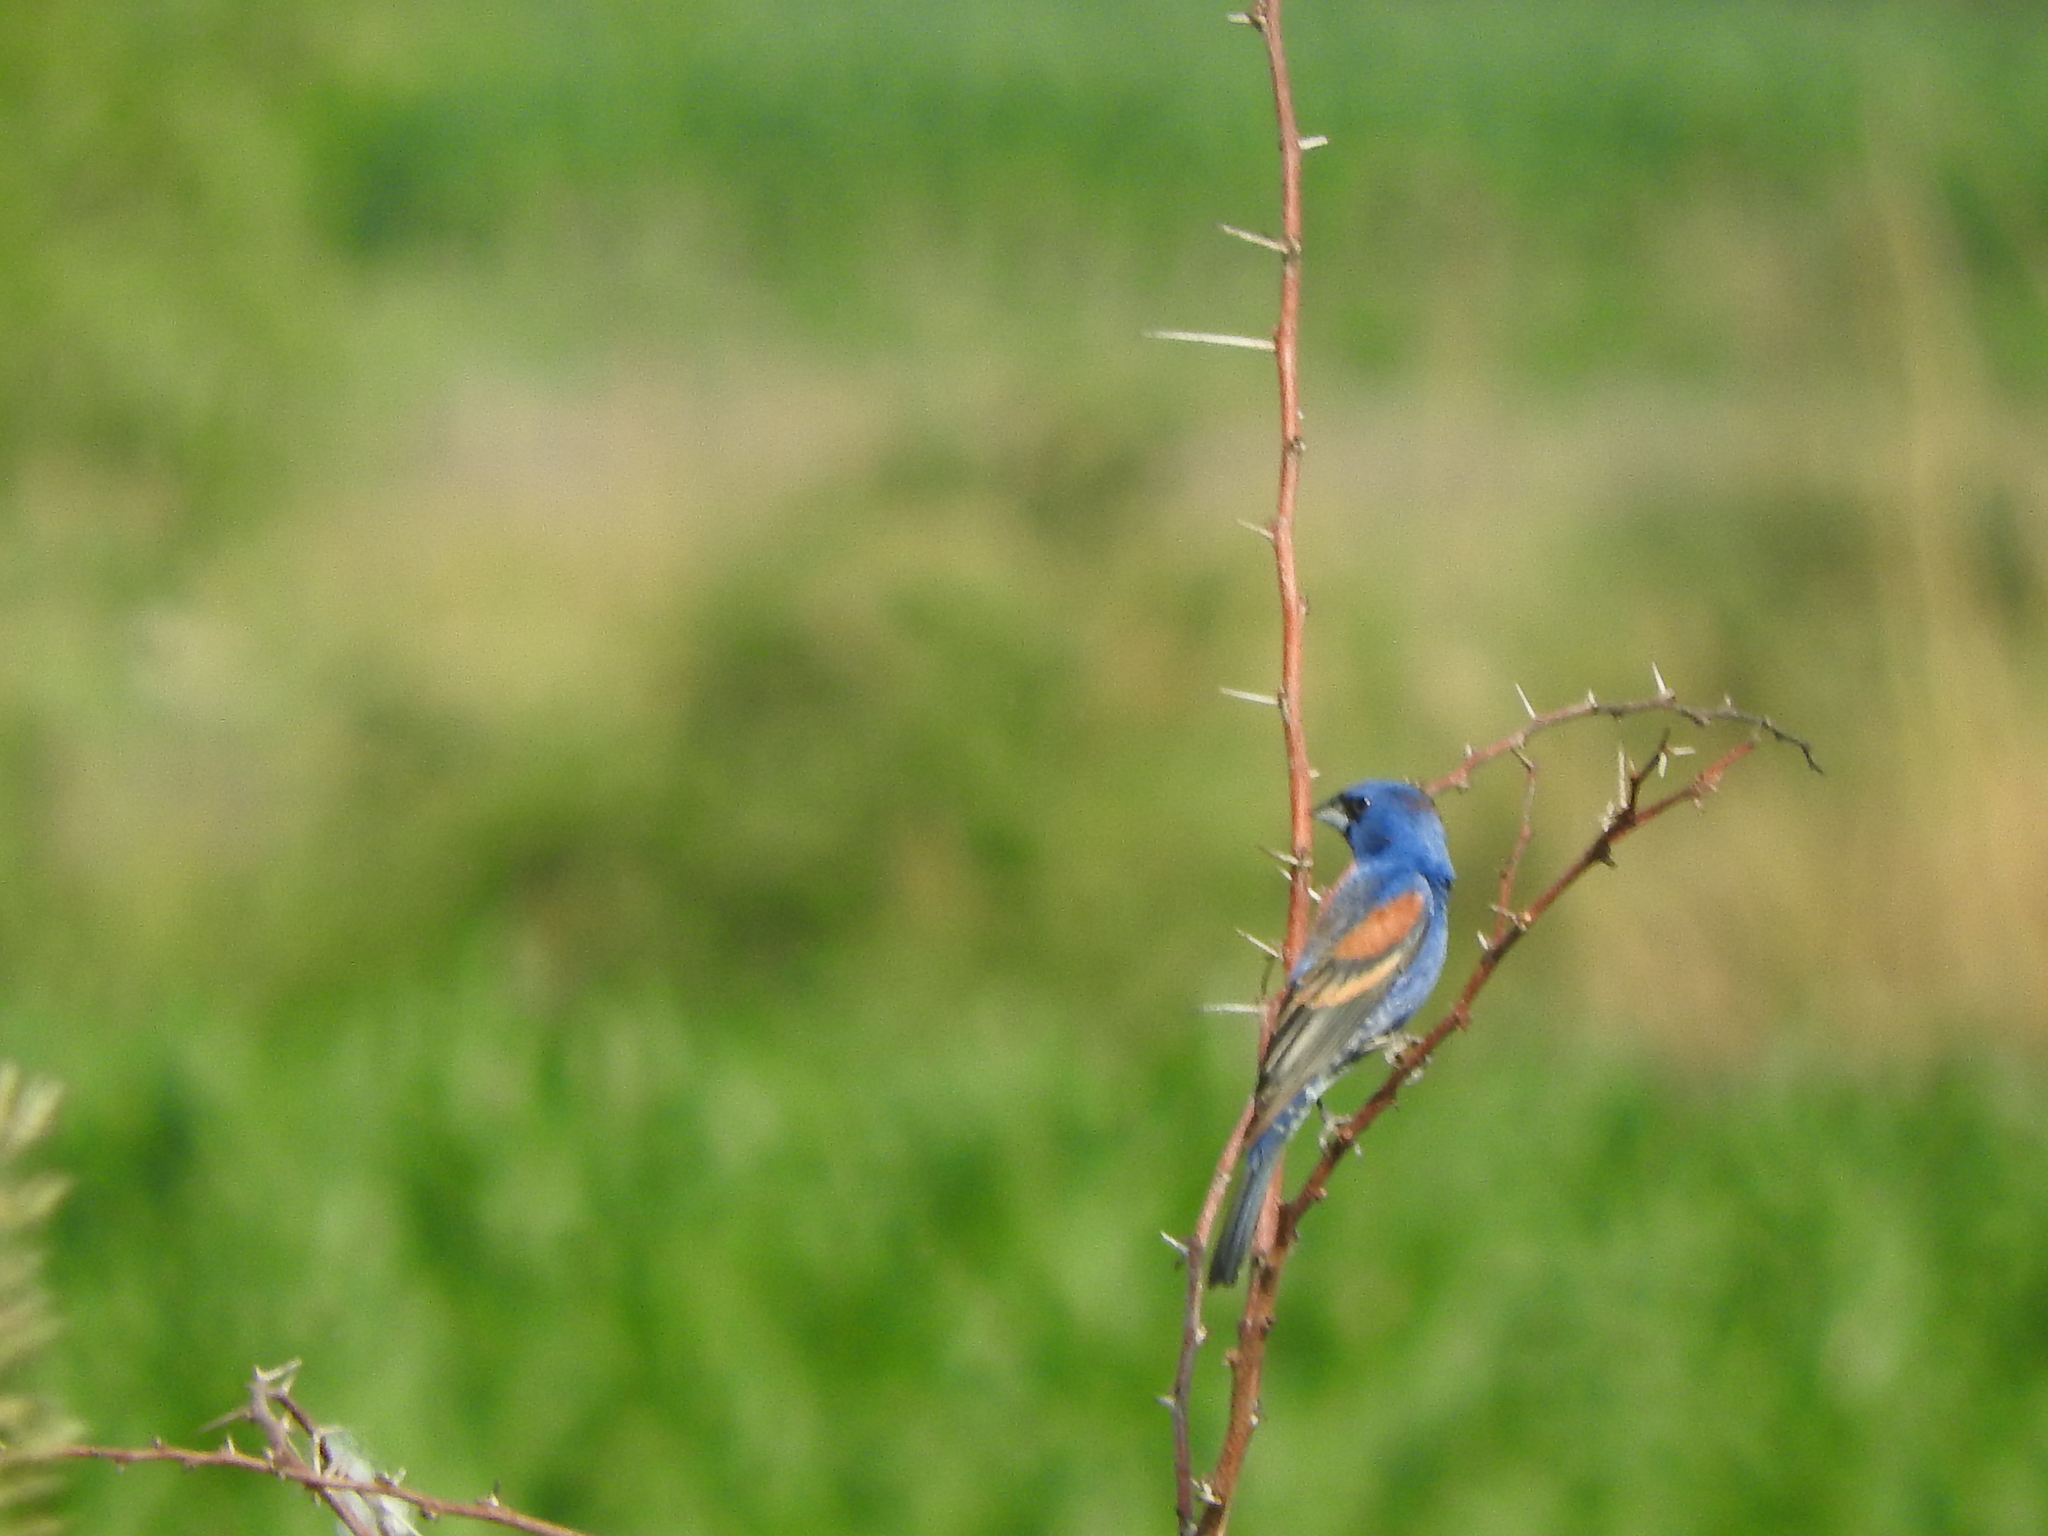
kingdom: Animalia
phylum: Chordata
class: Aves
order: Passeriformes
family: Cardinalidae
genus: Passerina
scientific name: Passerina caerulea
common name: Blue grosbeak
